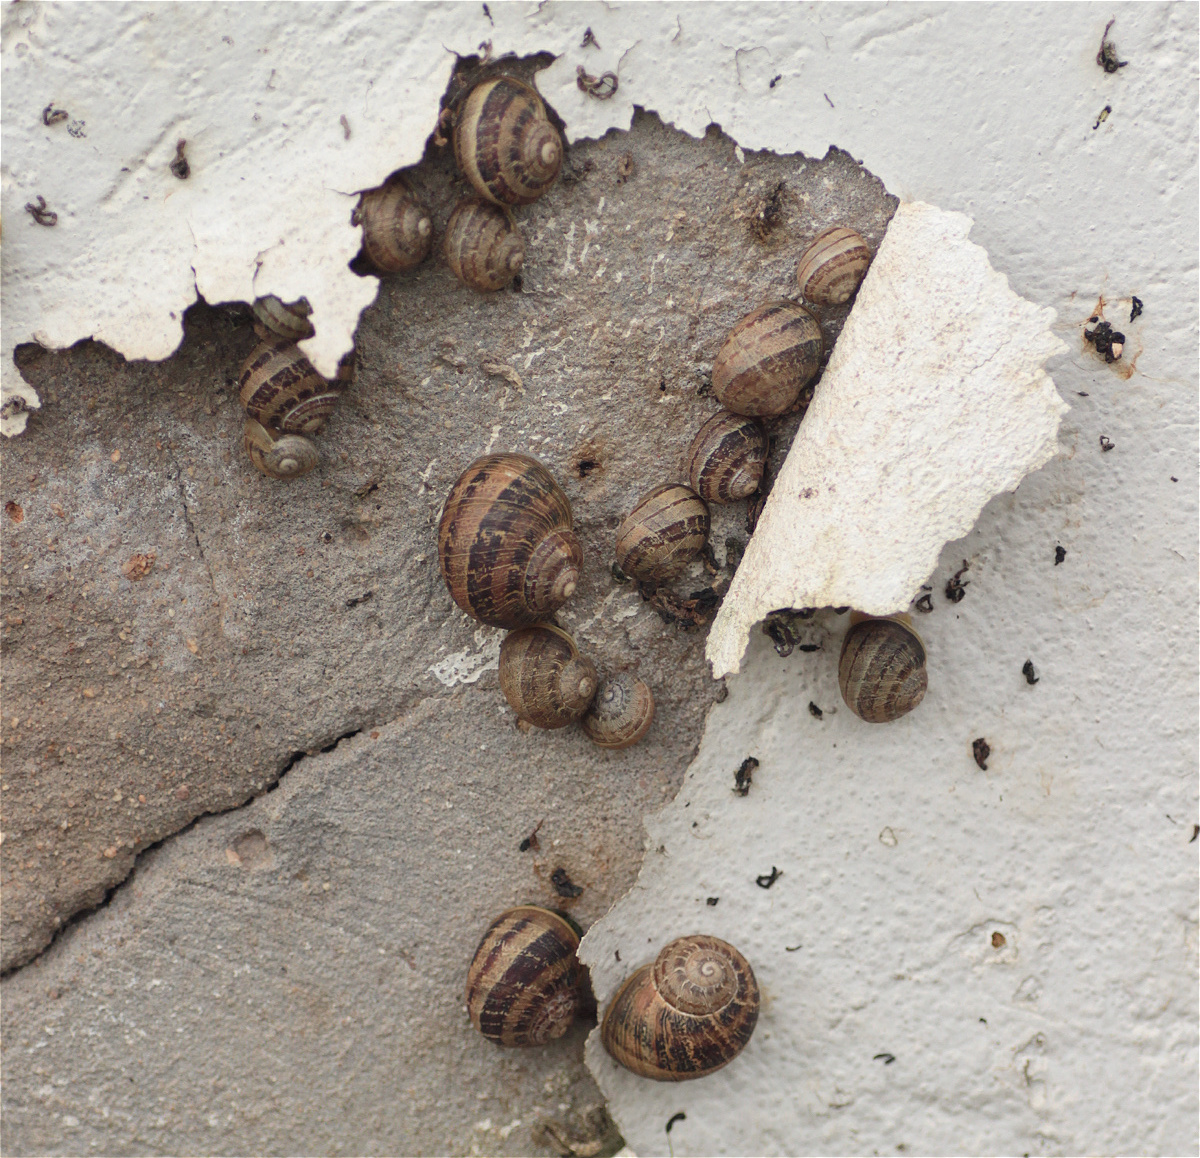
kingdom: Animalia
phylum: Mollusca
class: Gastropoda
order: Stylommatophora
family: Helicidae
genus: Cornu
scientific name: Cornu aspersum
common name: Brown garden snail
